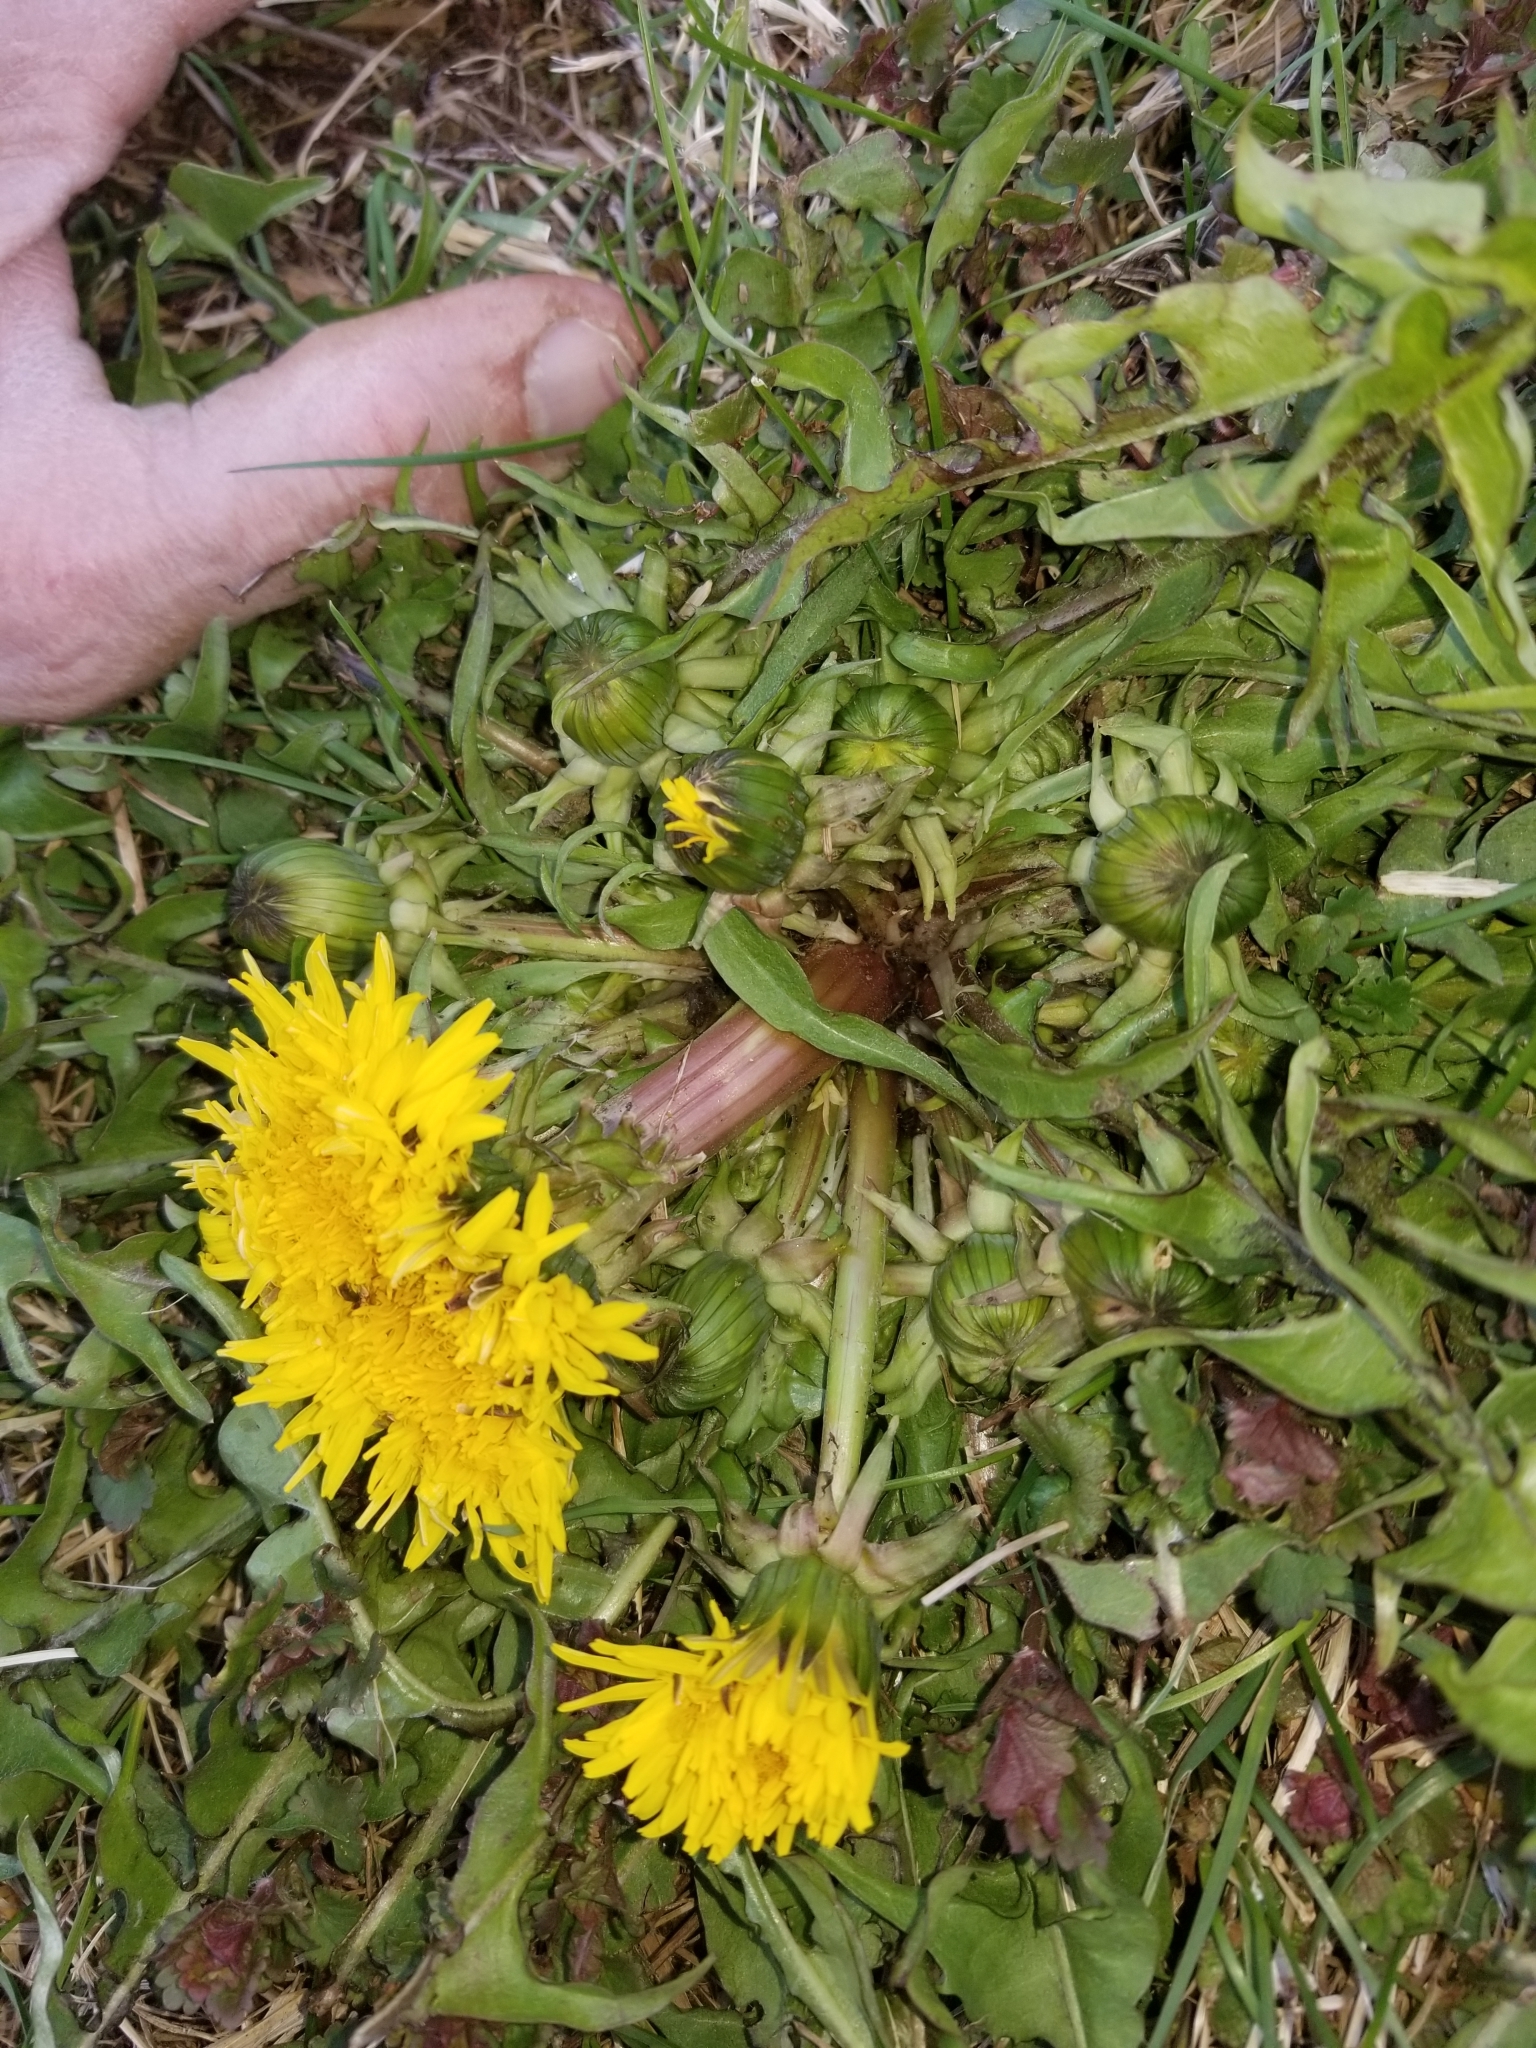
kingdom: Plantae
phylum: Tracheophyta
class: Magnoliopsida
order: Asterales
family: Asteraceae
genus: Taraxacum
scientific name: Taraxacum officinale
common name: Common dandelion
